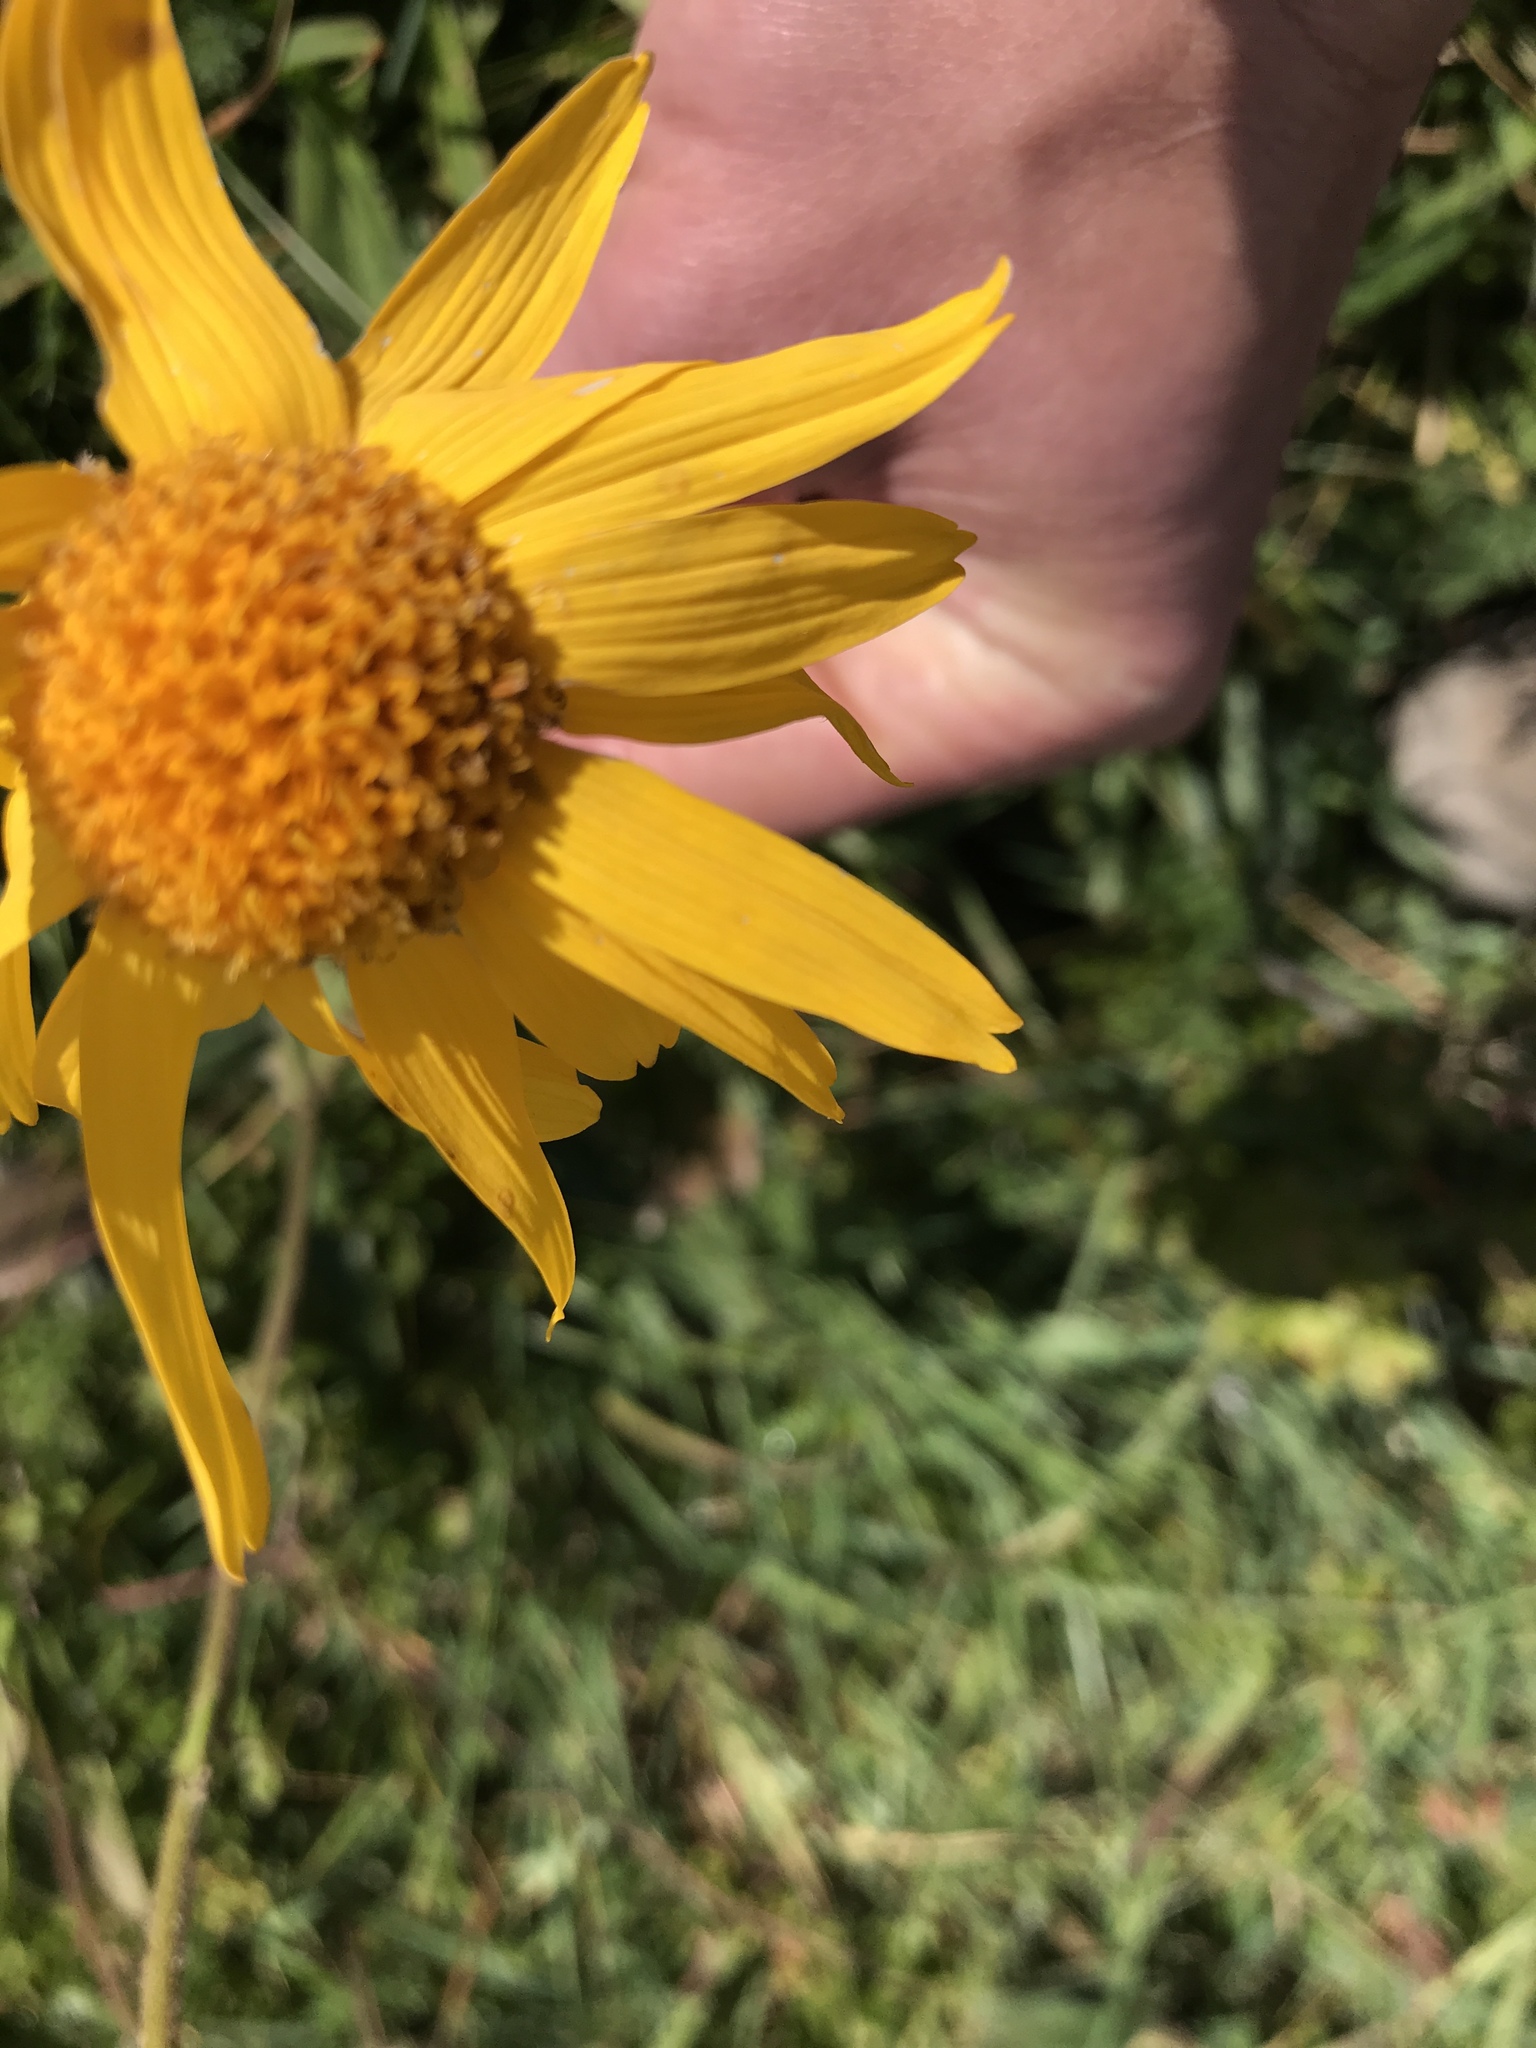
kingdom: Plantae
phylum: Tracheophyta
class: Magnoliopsida
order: Asterales
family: Asteraceae
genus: Arnica
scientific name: Arnica montana
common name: Leopard's bane
